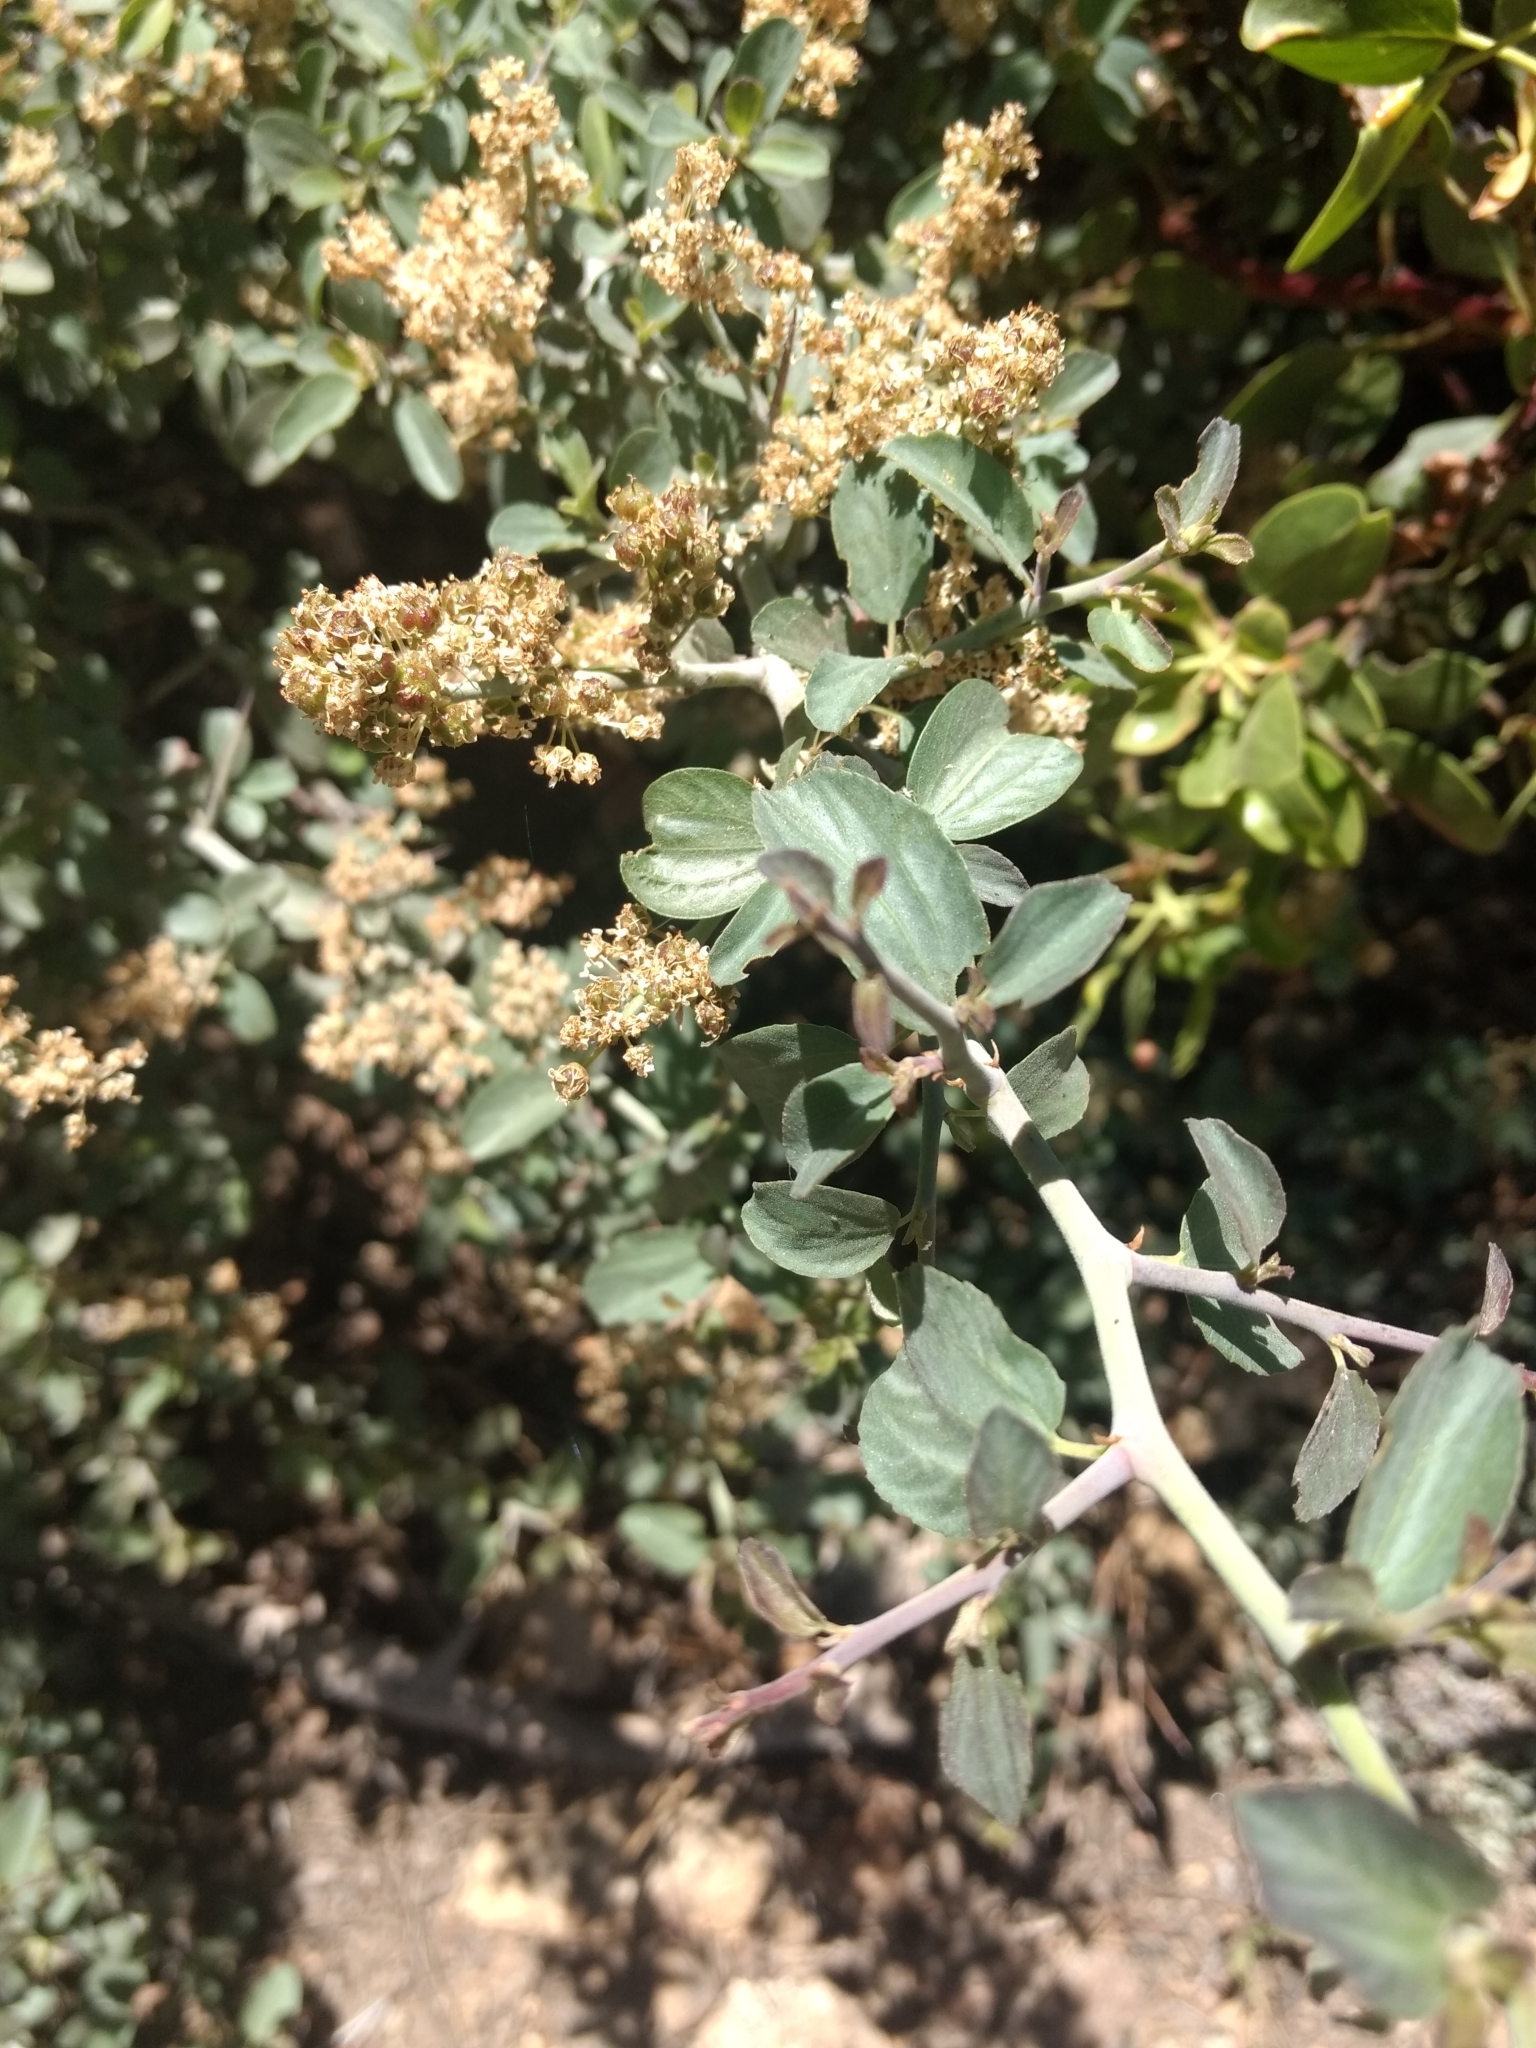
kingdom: Plantae
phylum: Tracheophyta
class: Magnoliopsida
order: Rosales
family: Rhamnaceae
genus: Ceanothus
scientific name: Ceanothus cordulatus
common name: Mountain whitethorn
